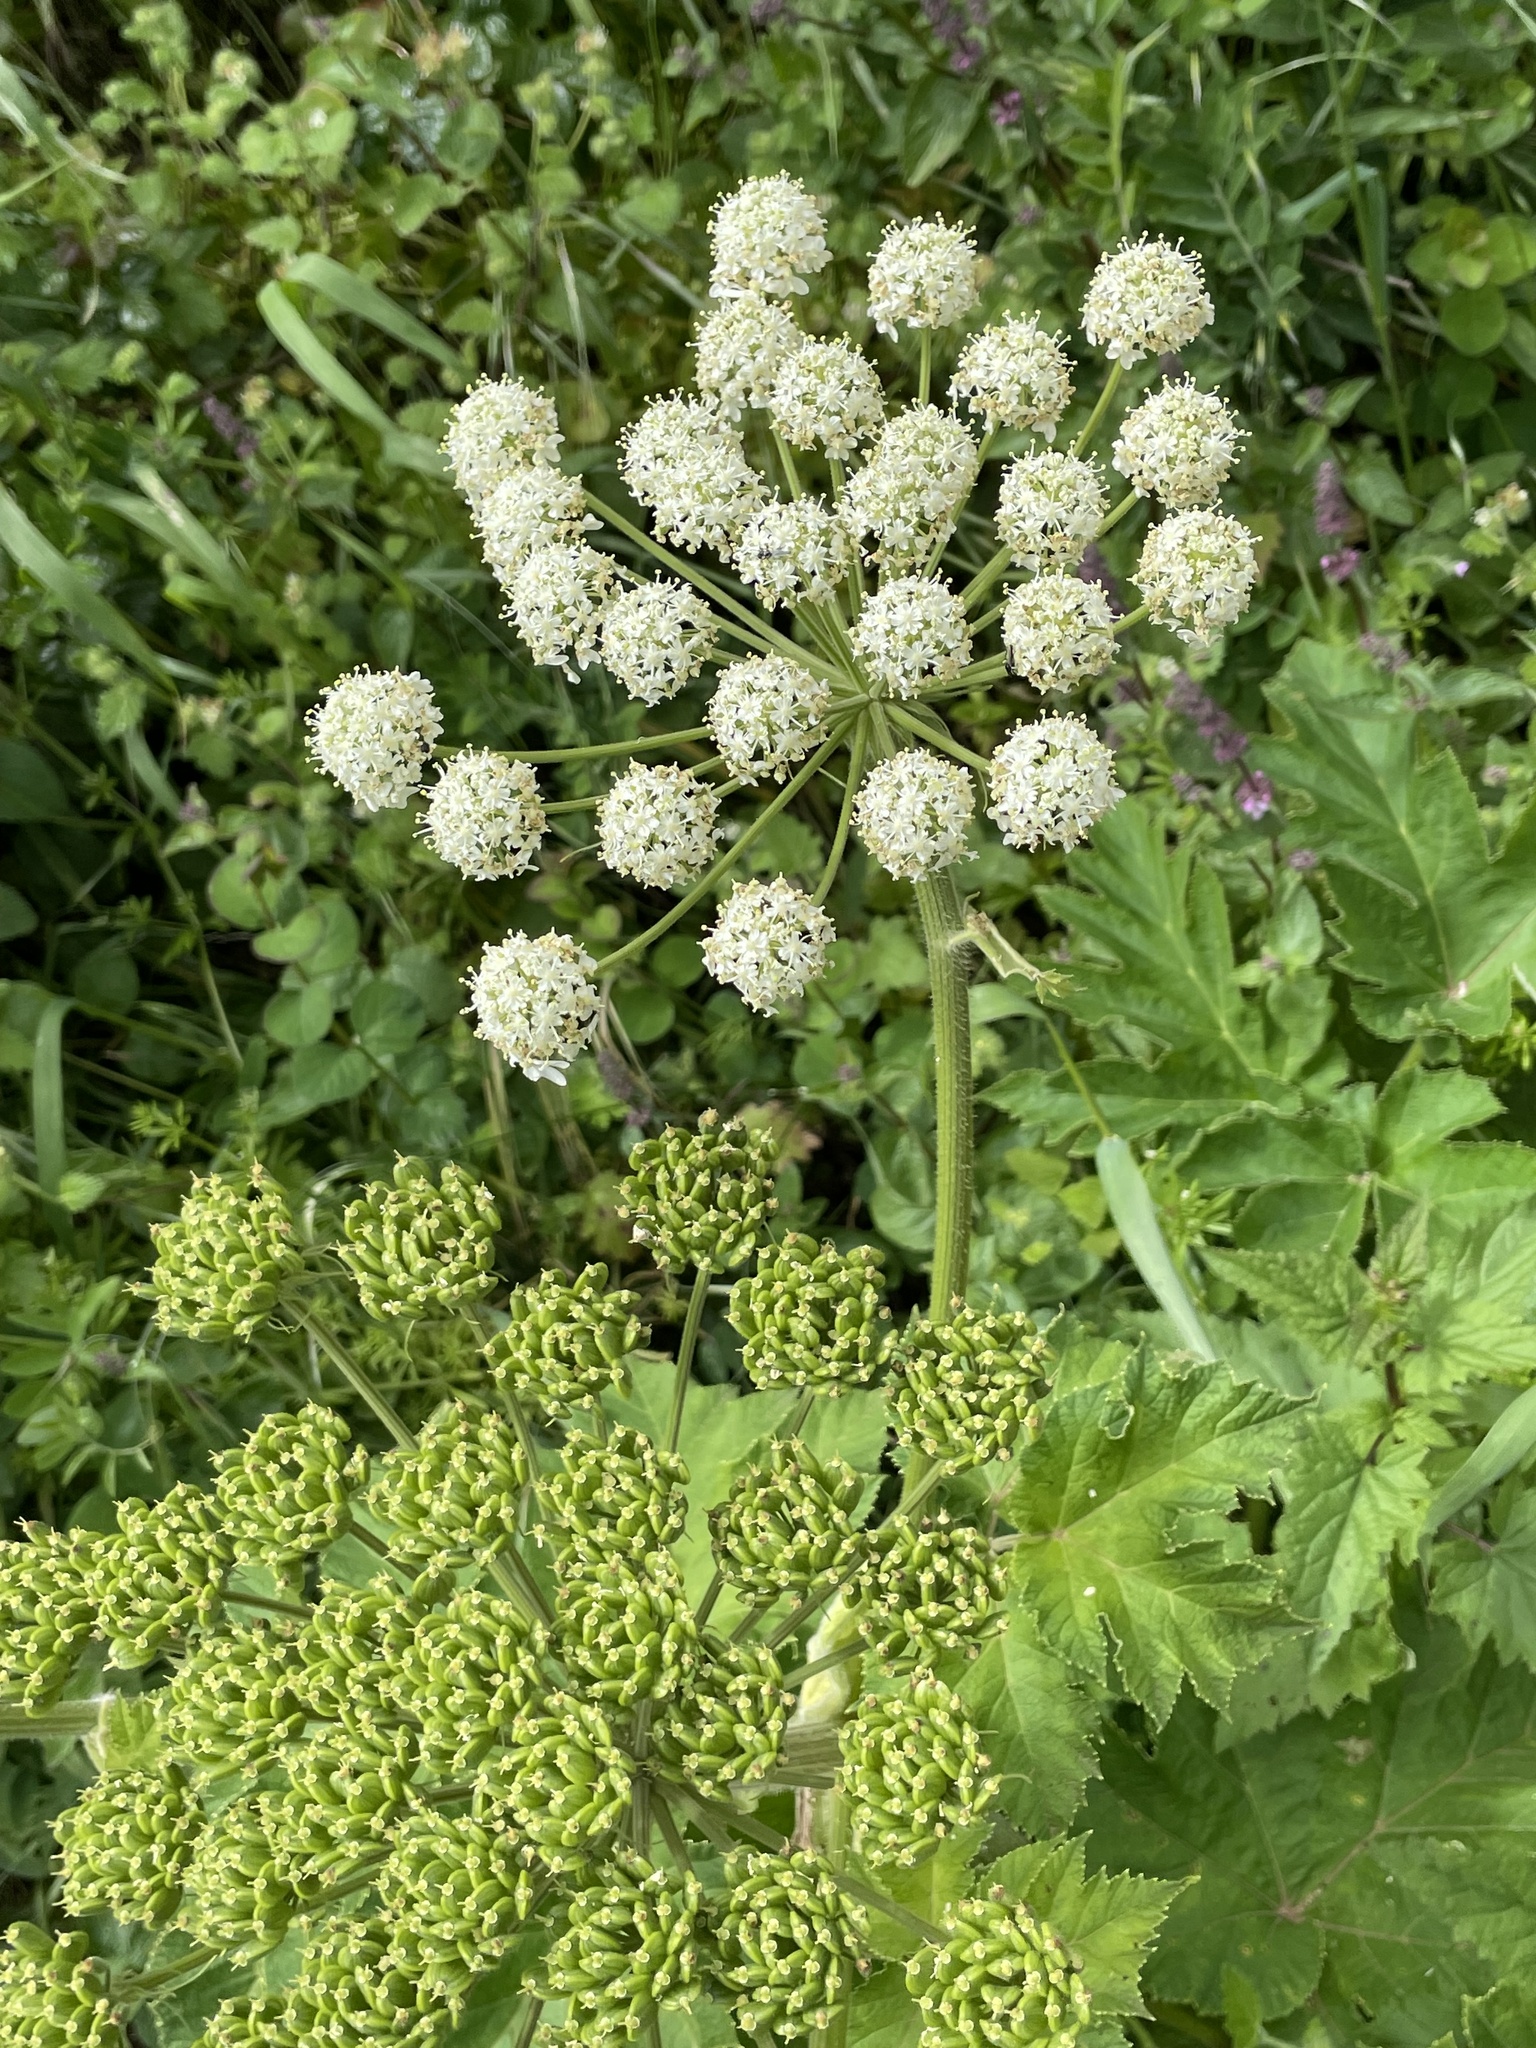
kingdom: Plantae
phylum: Tracheophyta
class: Magnoliopsida
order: Apiales
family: Apiaceae
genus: Heracleum
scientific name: Heracleum maximum
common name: American cow parsnip
